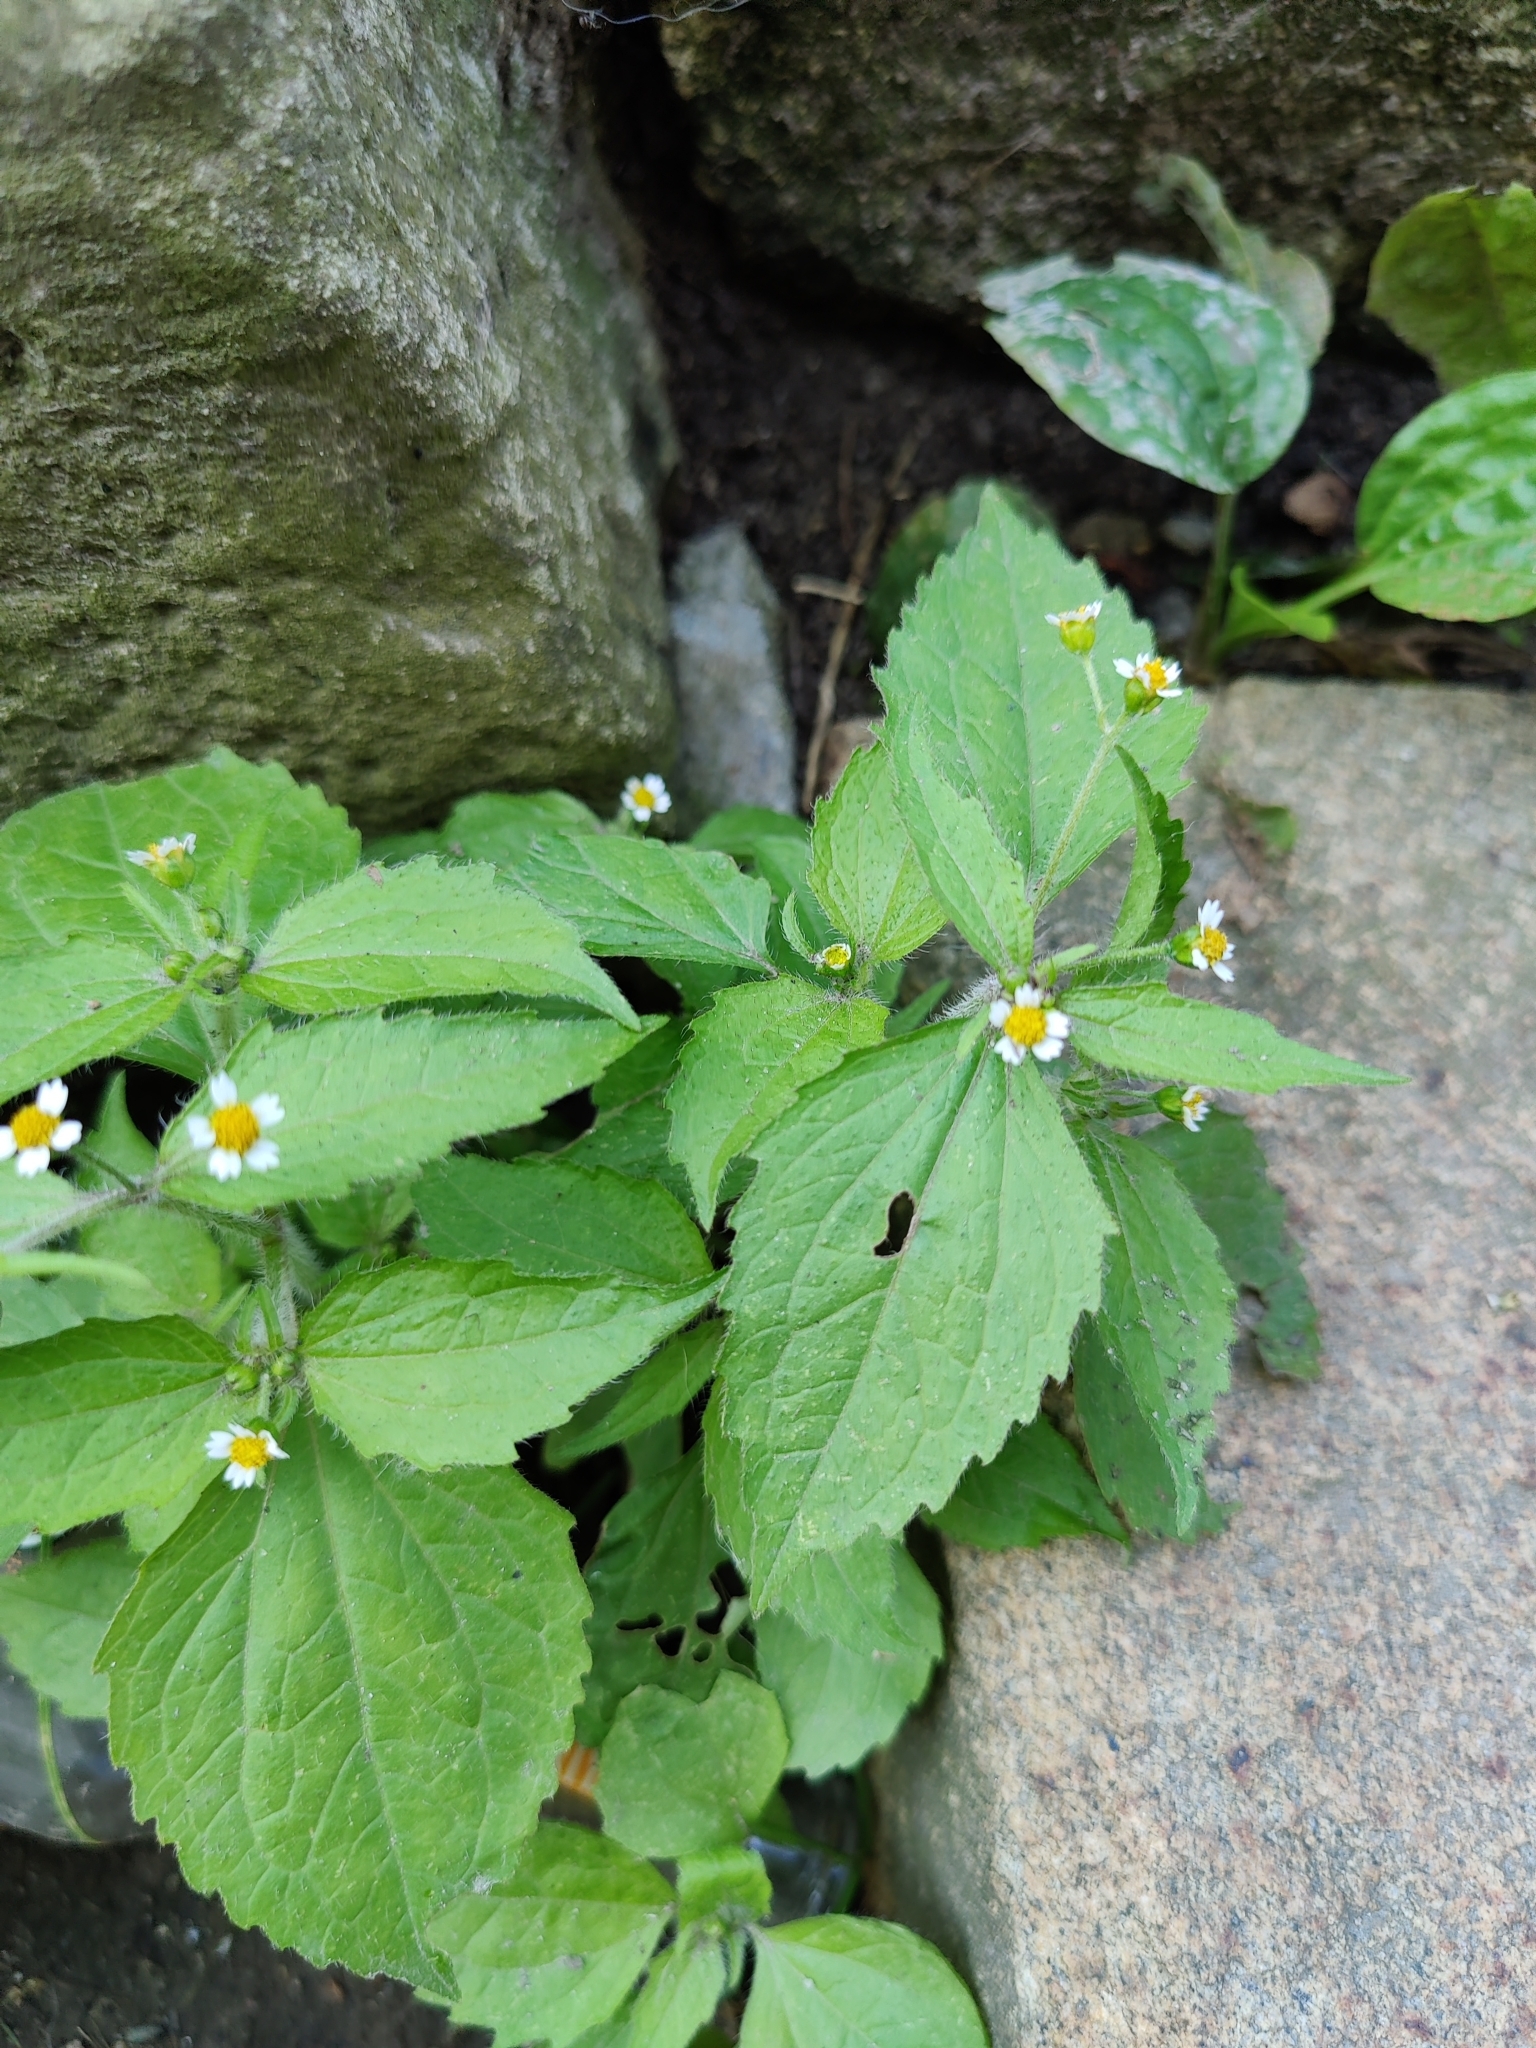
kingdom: Plantae
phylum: Tracheophyta
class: Magnoliopsida
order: Asterales
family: Asteraceae
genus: Galinsoga
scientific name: Galinsoga quadriradiata
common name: Shaggy soldier
